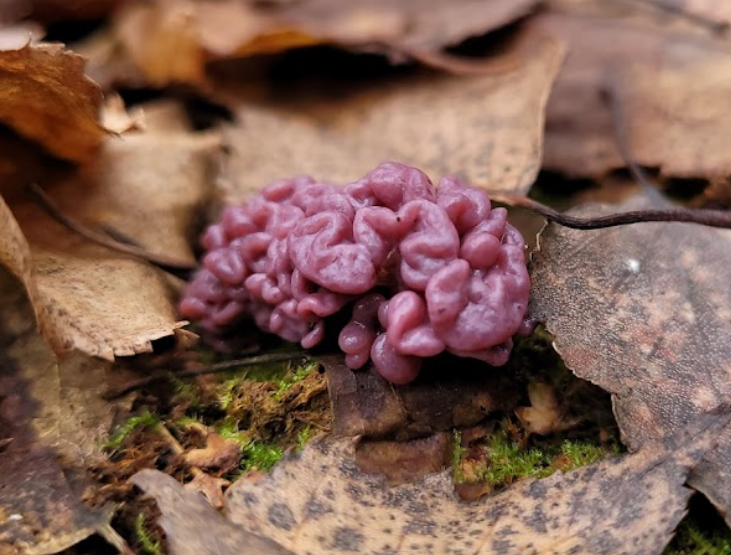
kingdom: Fungi
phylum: Ascomycota
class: Leotiomycetes
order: Helotiales
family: Gelatinodiscaceae
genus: Ascocoryne
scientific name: Ascocoryne sarcoides
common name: Purple jellydisc
